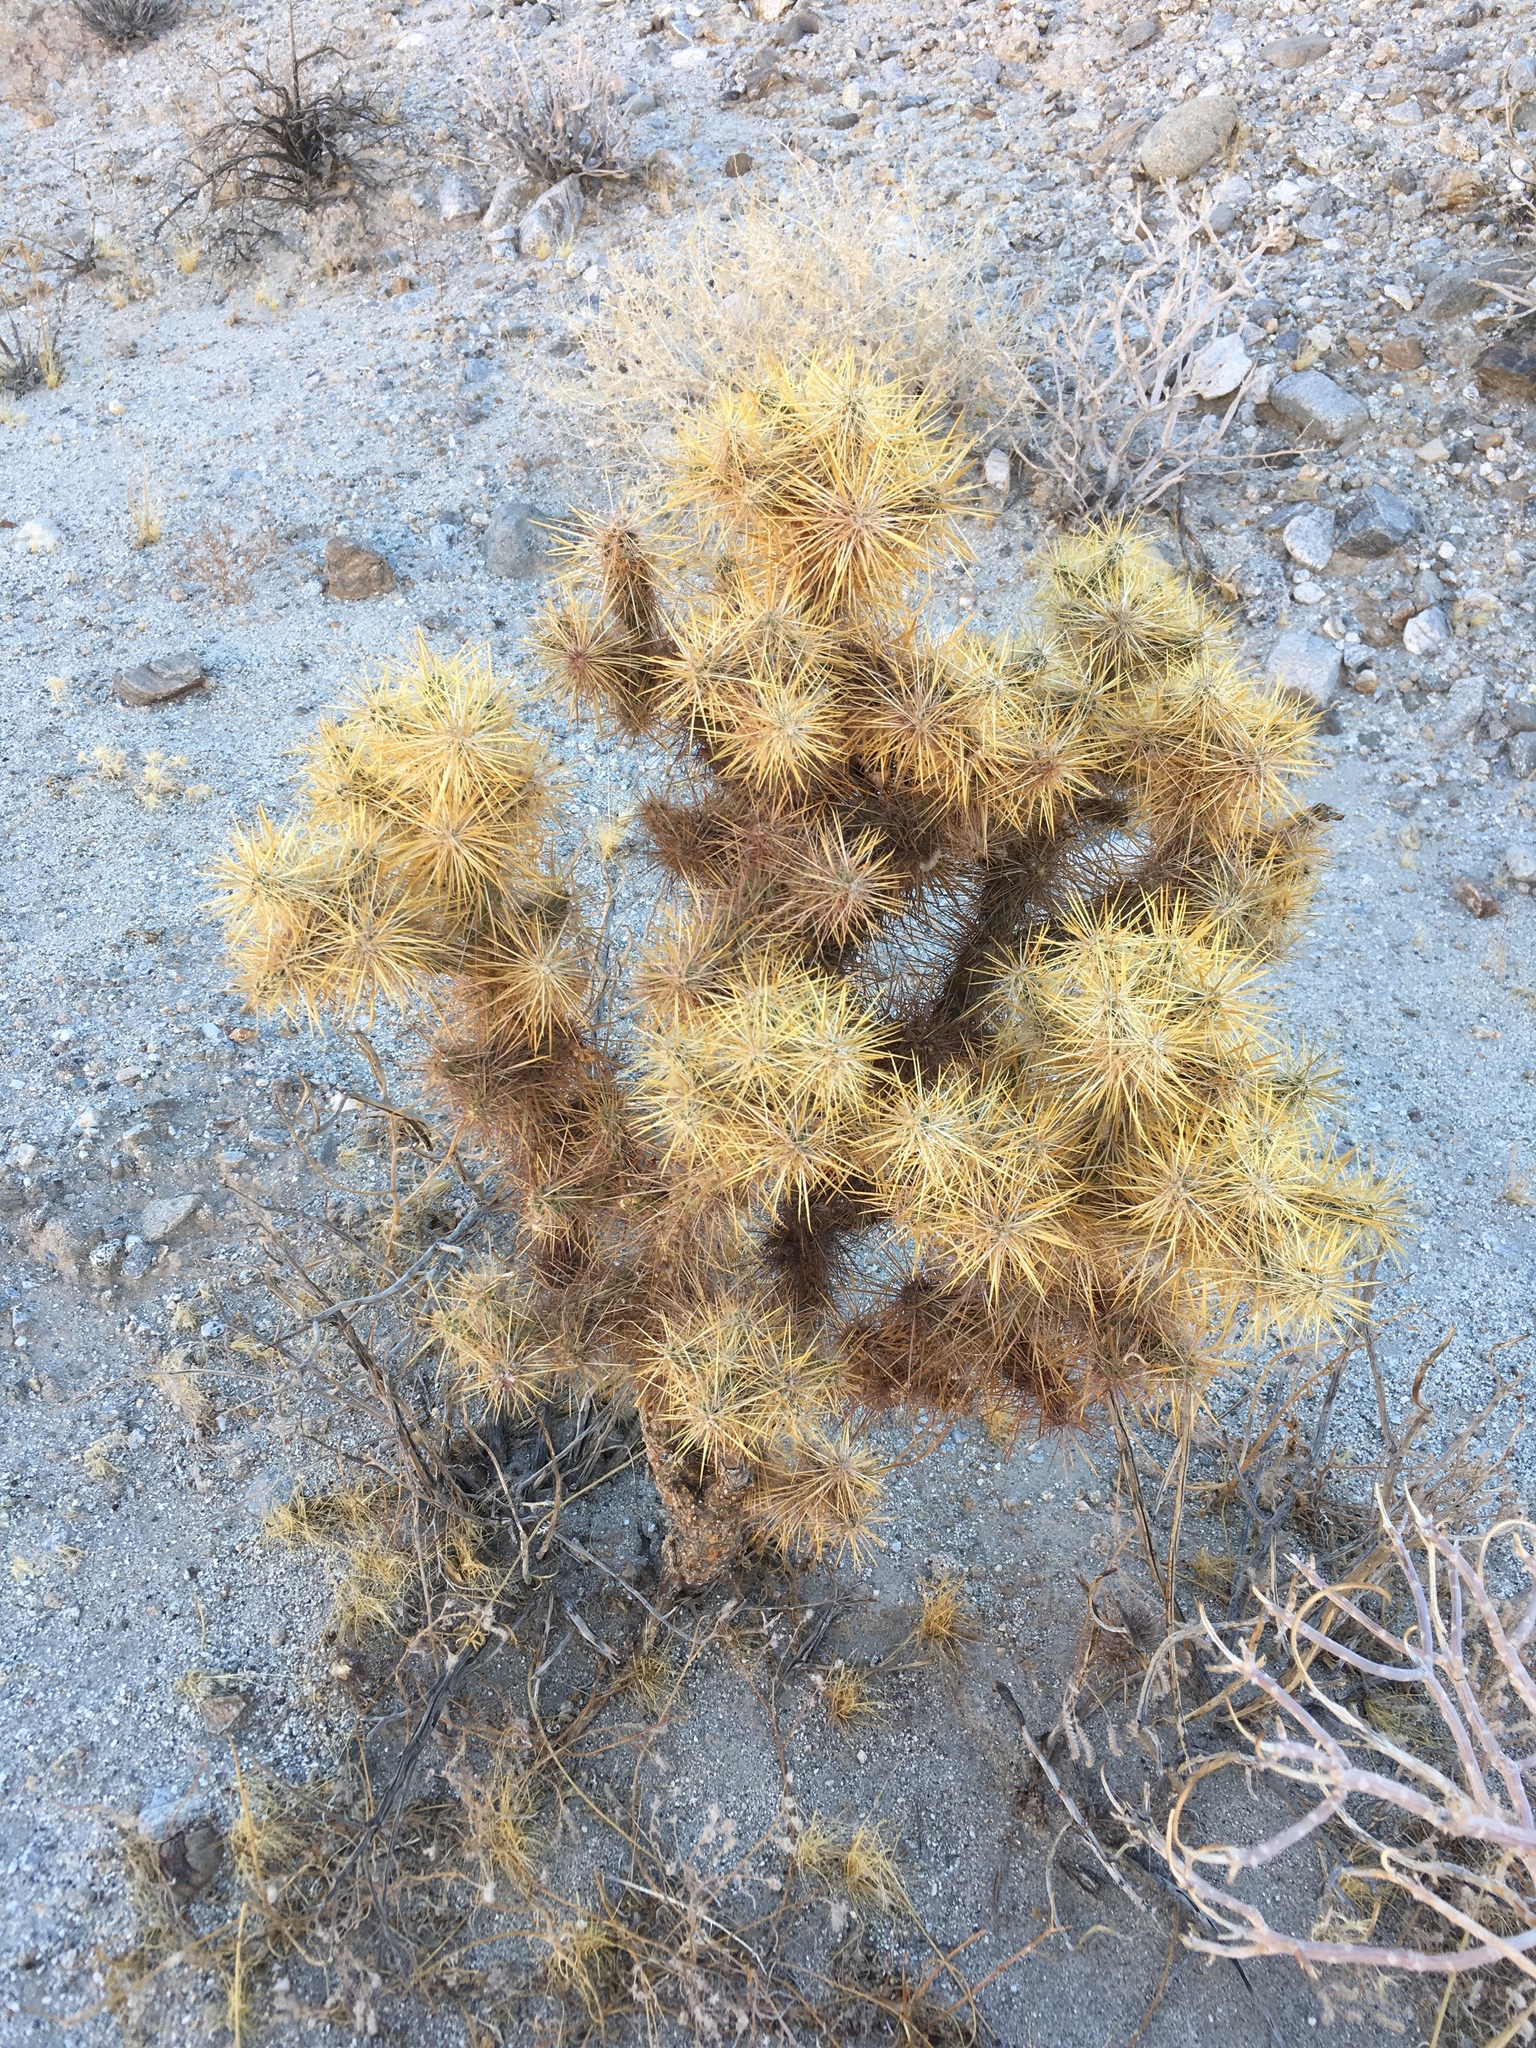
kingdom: Plantae
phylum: Tracheophyta
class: Magnoliopsida
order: Caryophyllales
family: Cactaceae
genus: Cylindropuntia
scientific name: Cylindropuntia echinocarpa
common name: Ground cholla
